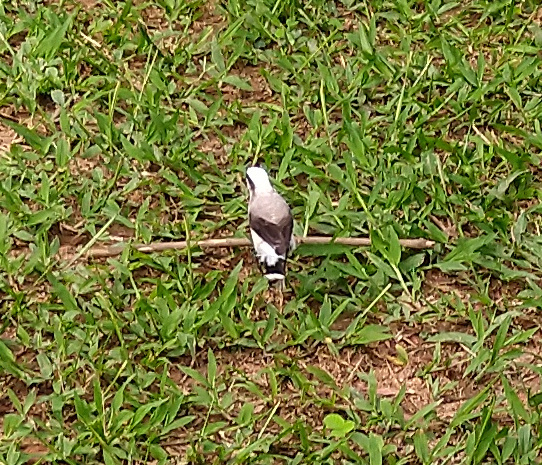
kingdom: Animalia
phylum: Chordata
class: Aves
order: Passeriformes
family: Tyrannidae
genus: Fluvicola
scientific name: Fluvicola nengeta
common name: Masked water tyrant
